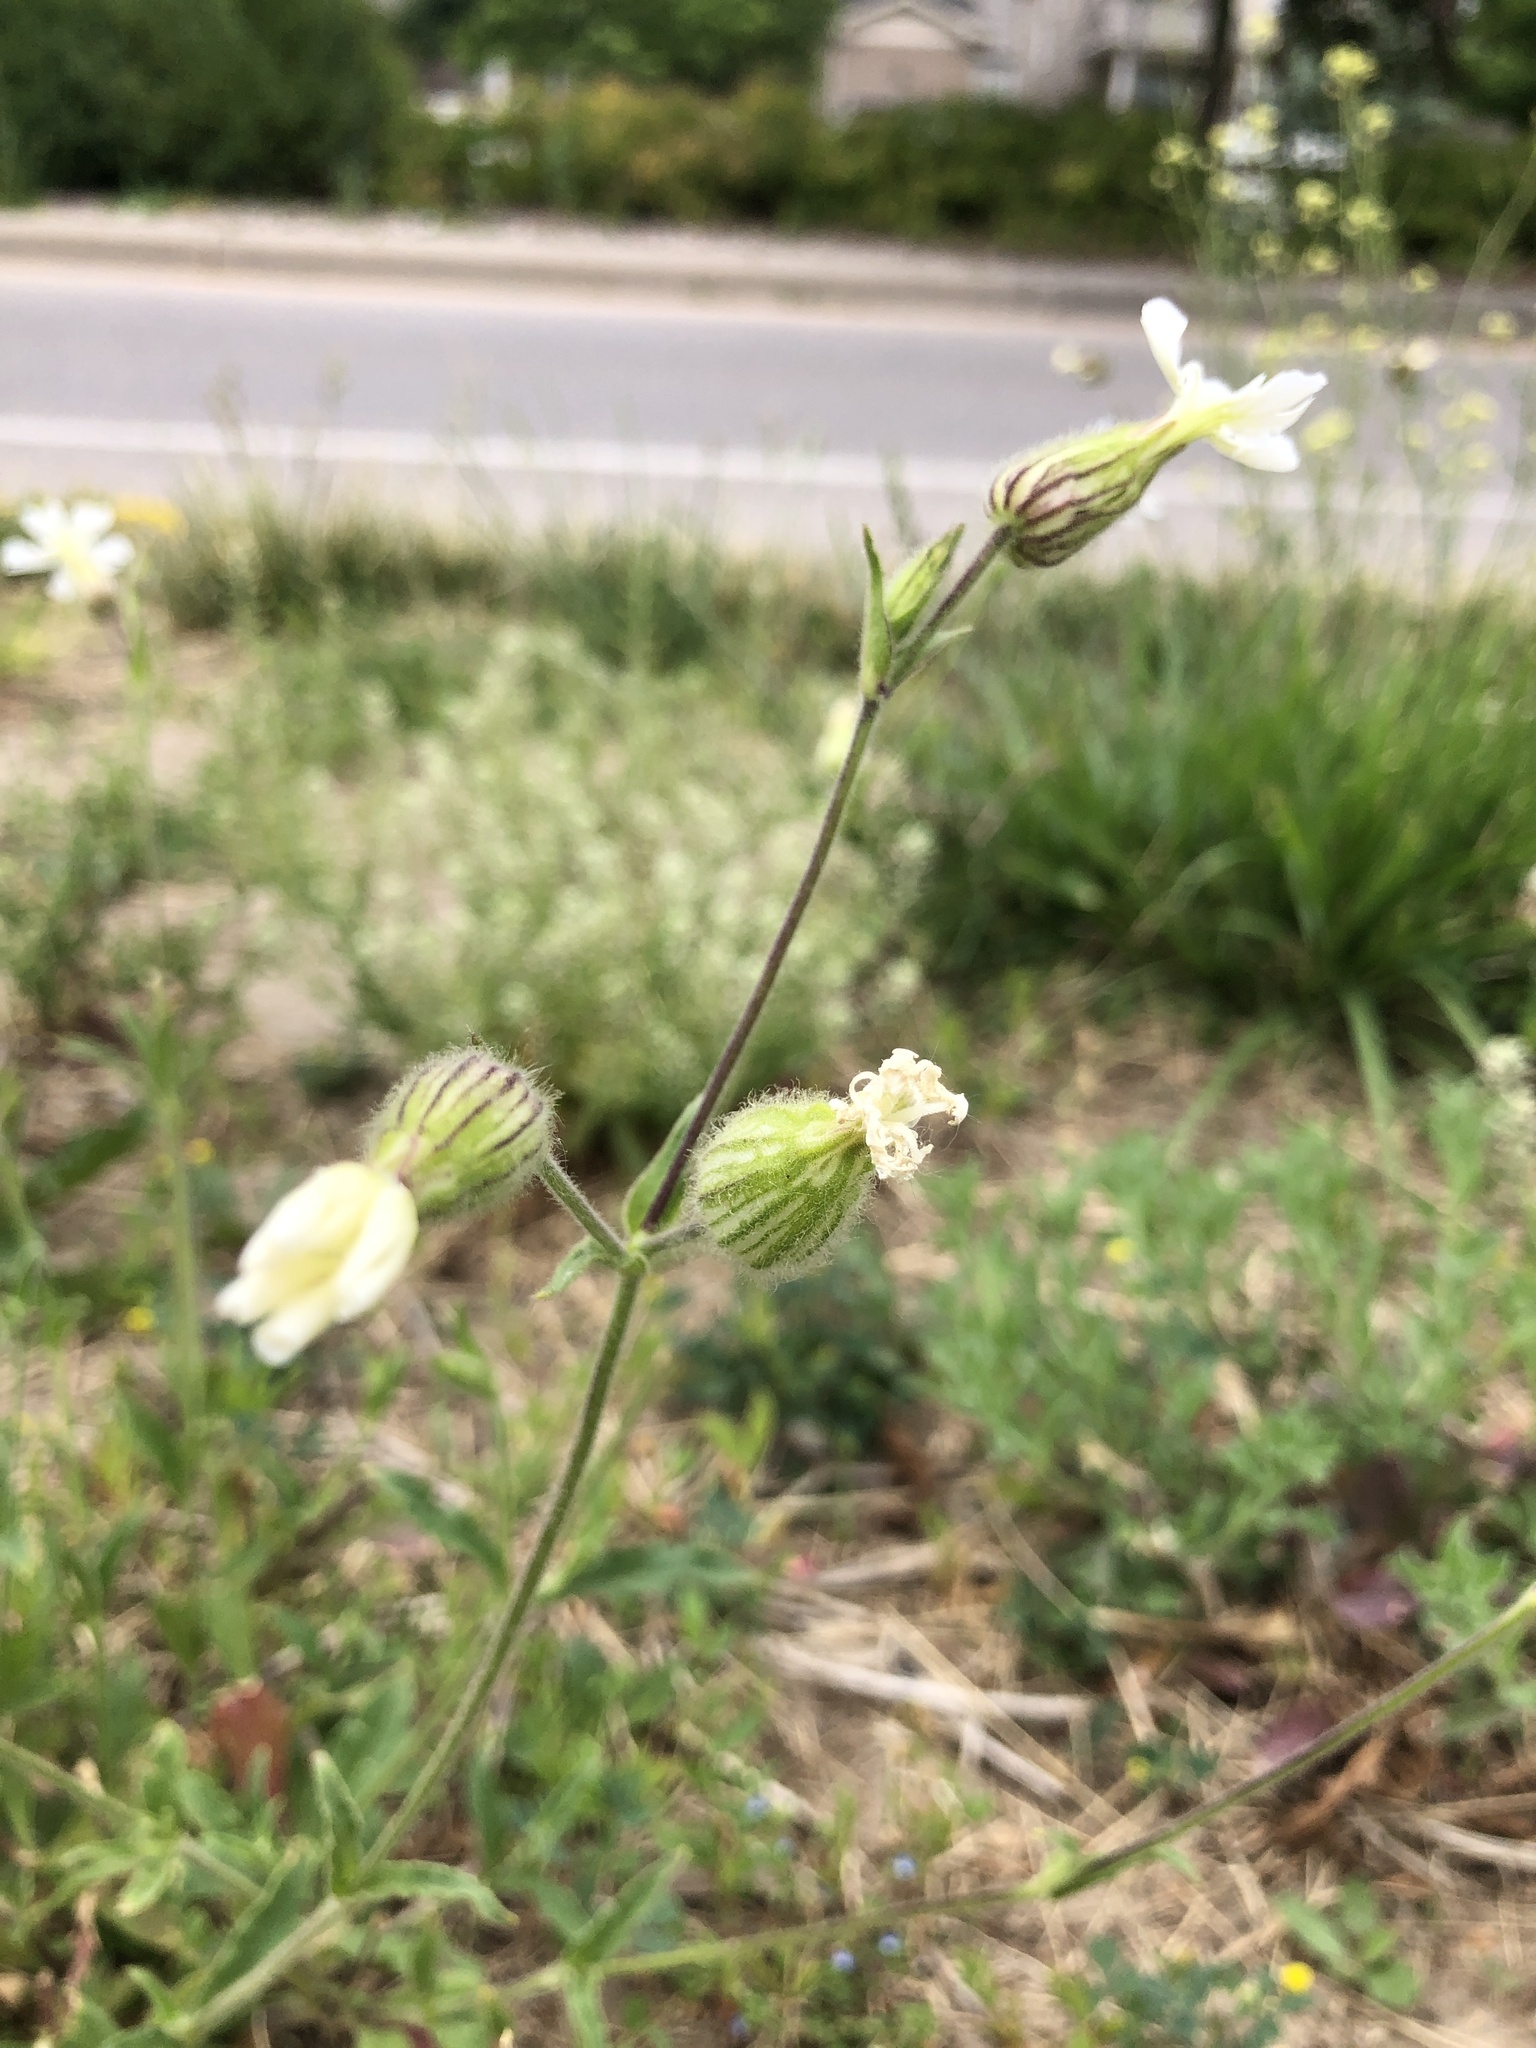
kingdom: Plantae
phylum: Tracheophyta
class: Magnoliopsida
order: Caryophyllales
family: Caryophyllaceae
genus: Silene
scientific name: Silene latifolia
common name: White campion
